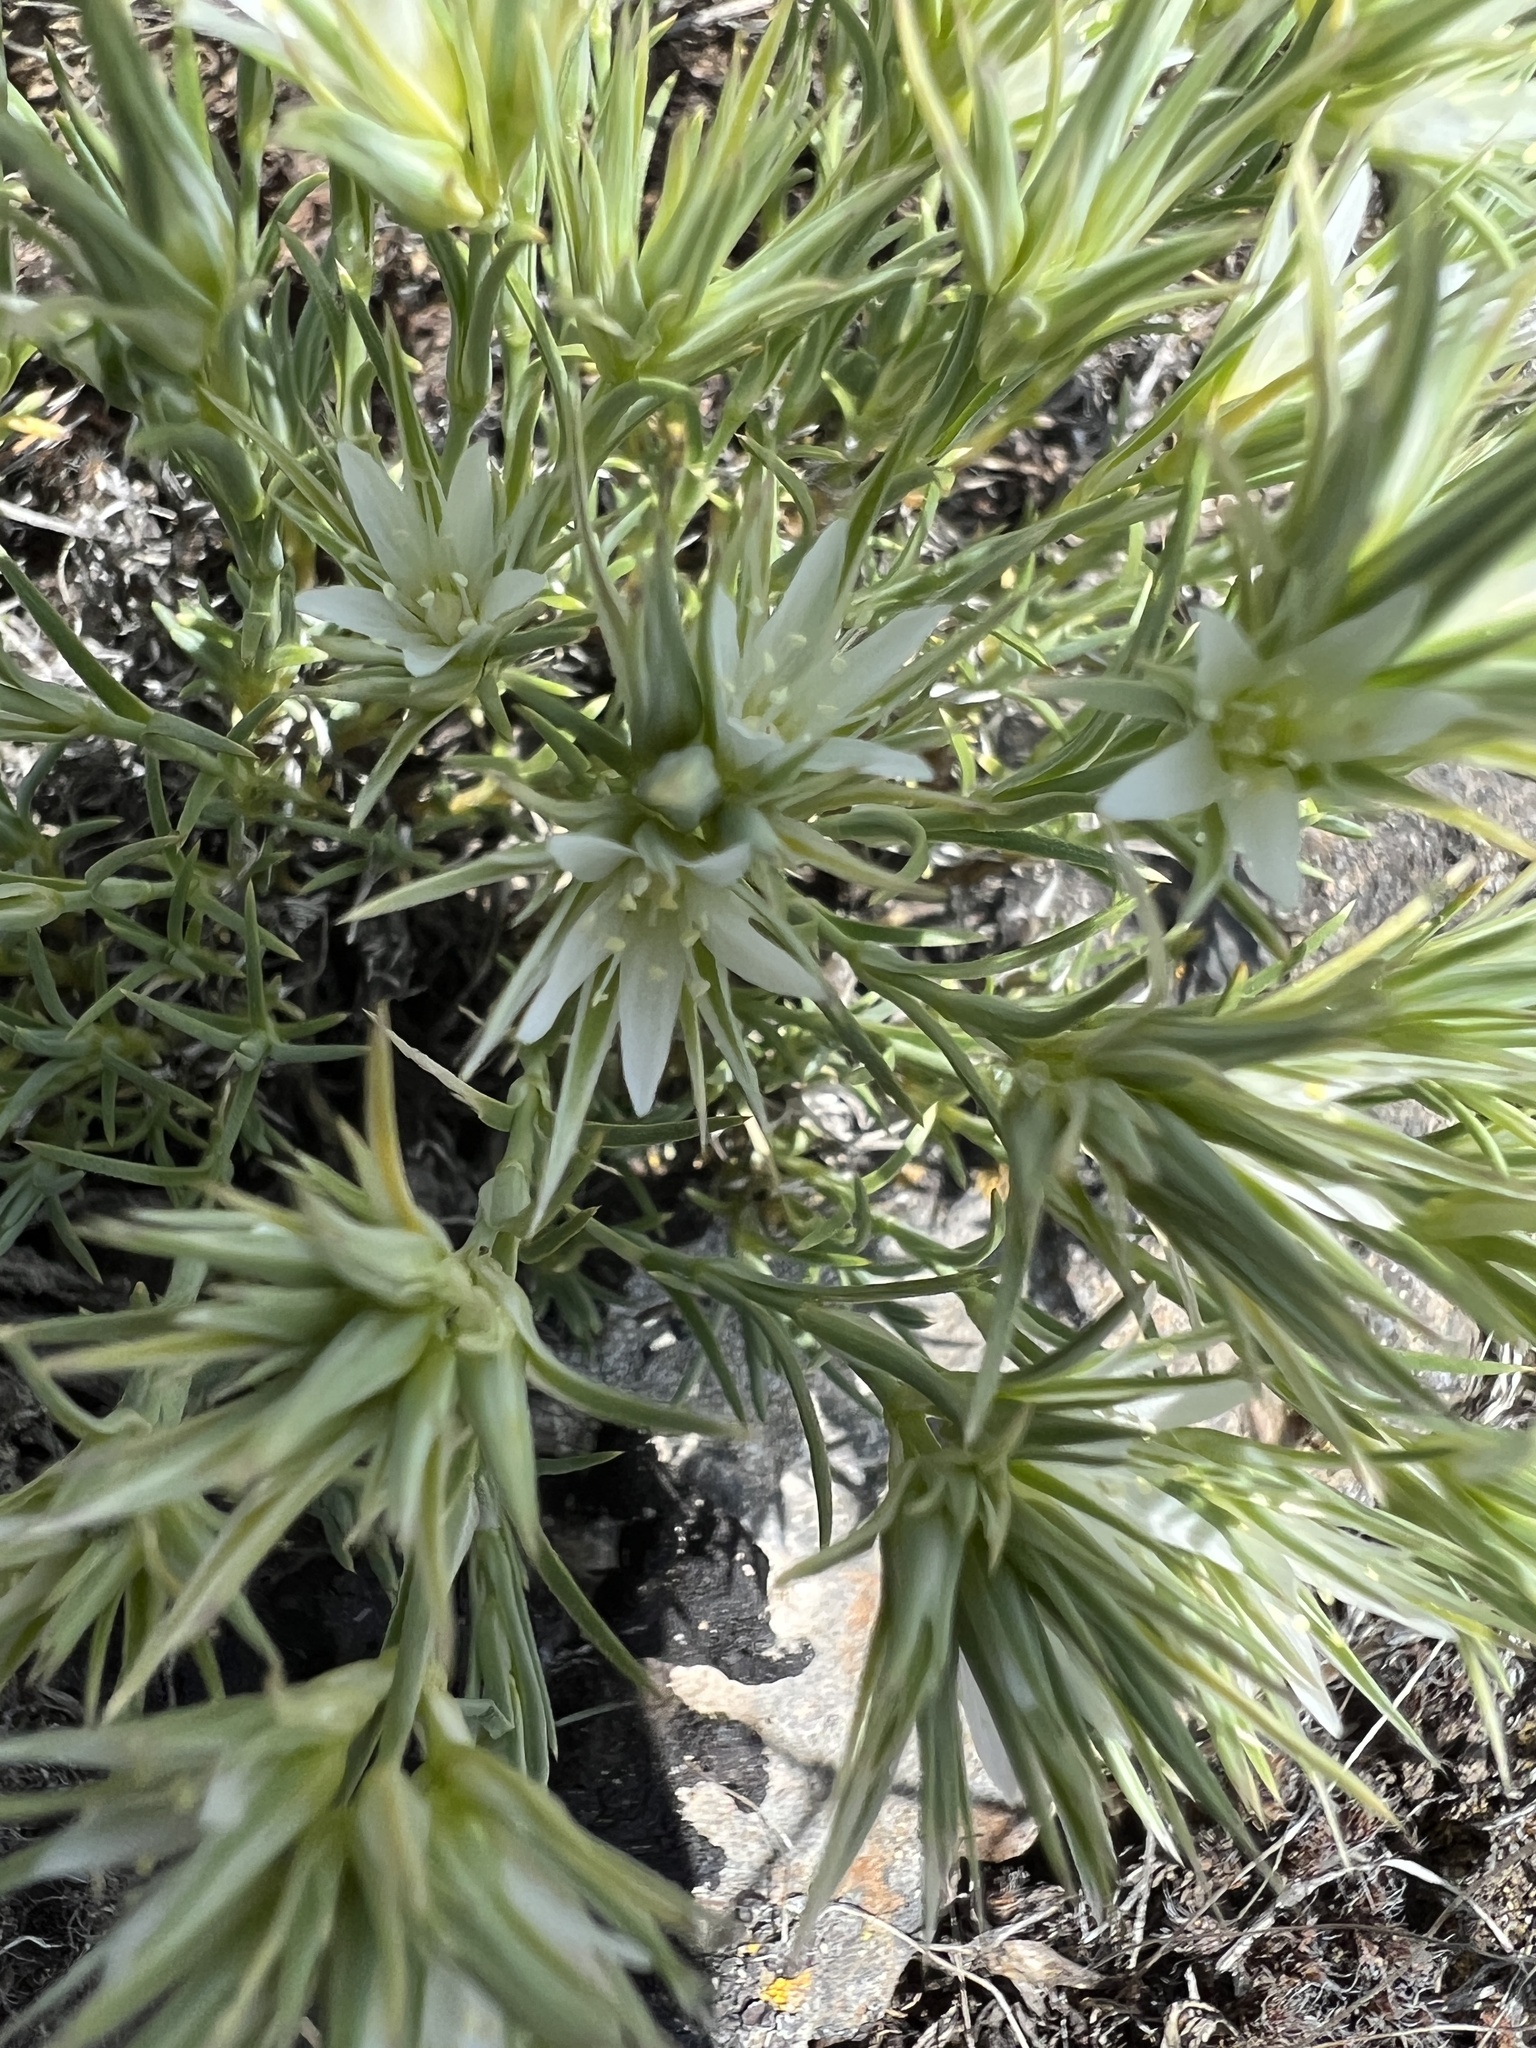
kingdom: Plantae
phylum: Tracheophyta
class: Magnoliopsida
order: Caryophyllales
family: Caryophyllaceae
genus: Eremogone
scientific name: Eremogone franklinii
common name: Franklin's sandwort
